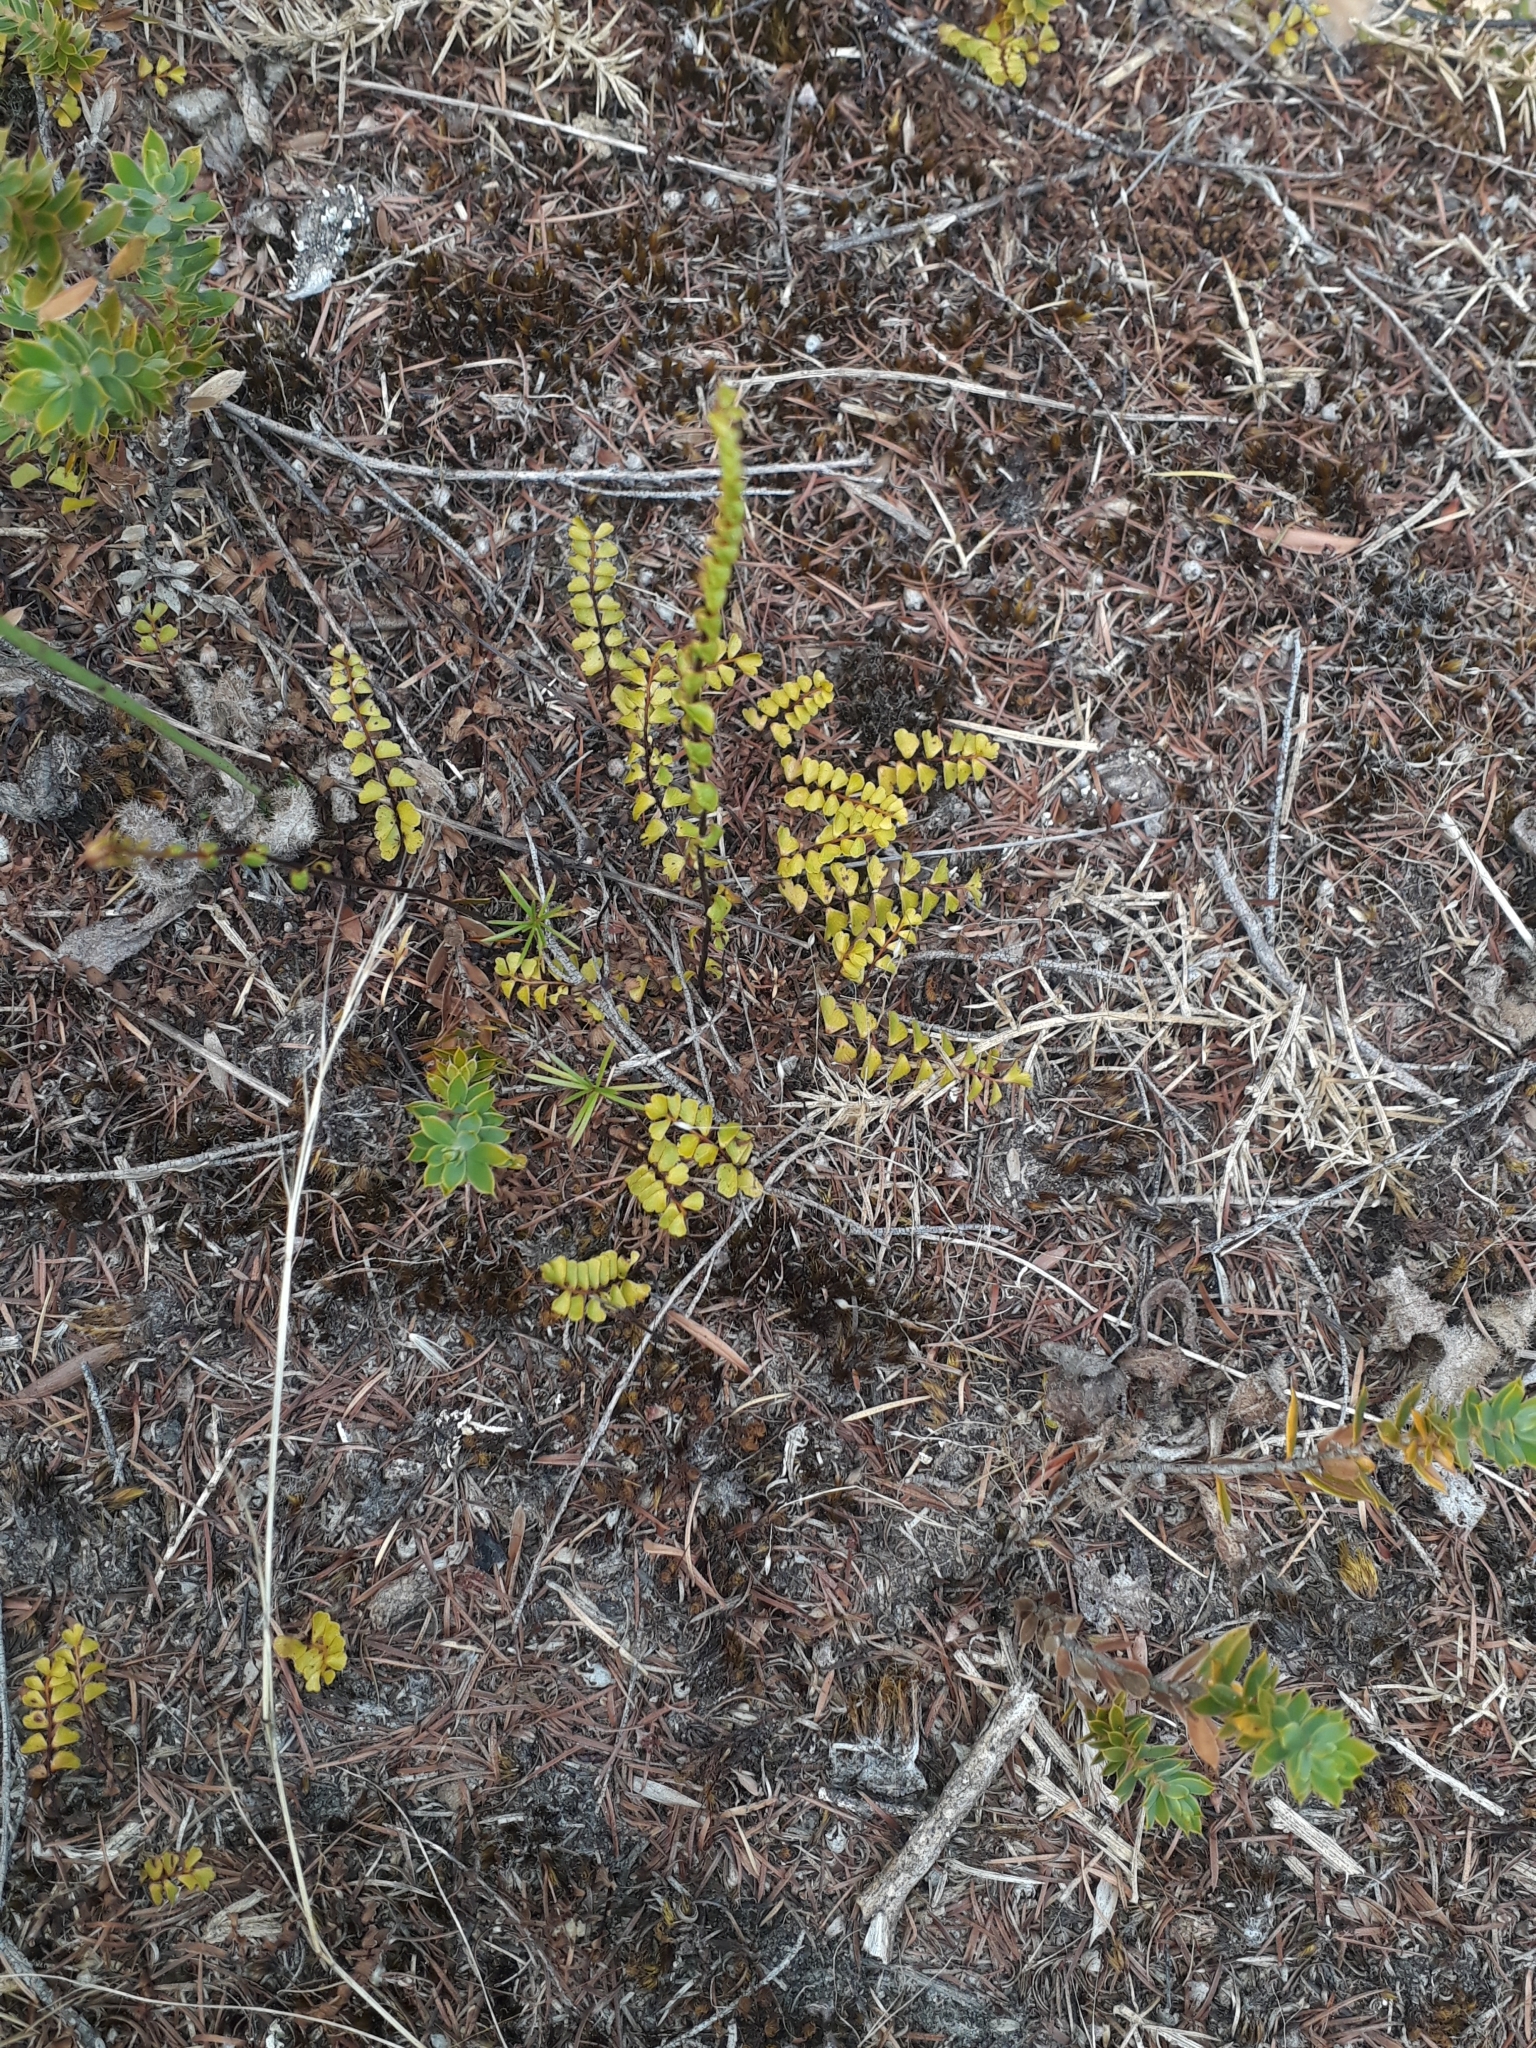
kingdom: Plantae
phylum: Tracheophyta
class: Polypodiopsida
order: Polypodiales
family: Lindsaeaceae
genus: Lindsaea
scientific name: Lindsaea linearis
